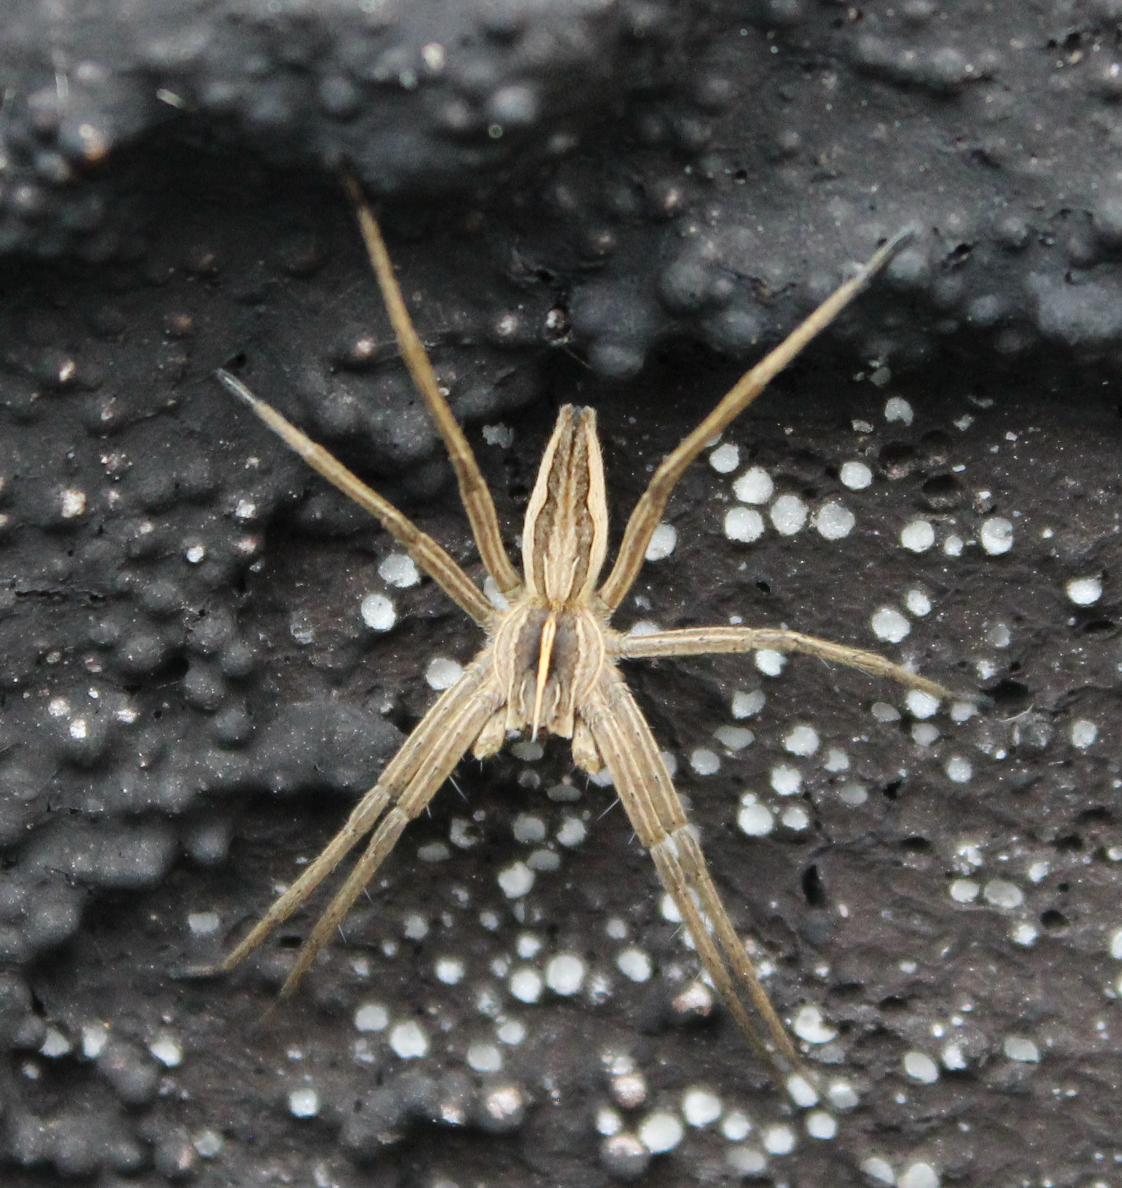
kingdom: Animalia
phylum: Arthropoda
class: Arachnida
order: Araneae
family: Pisauridae
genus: Pisaura
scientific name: Pisaura mirabilis
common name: Tent spider
